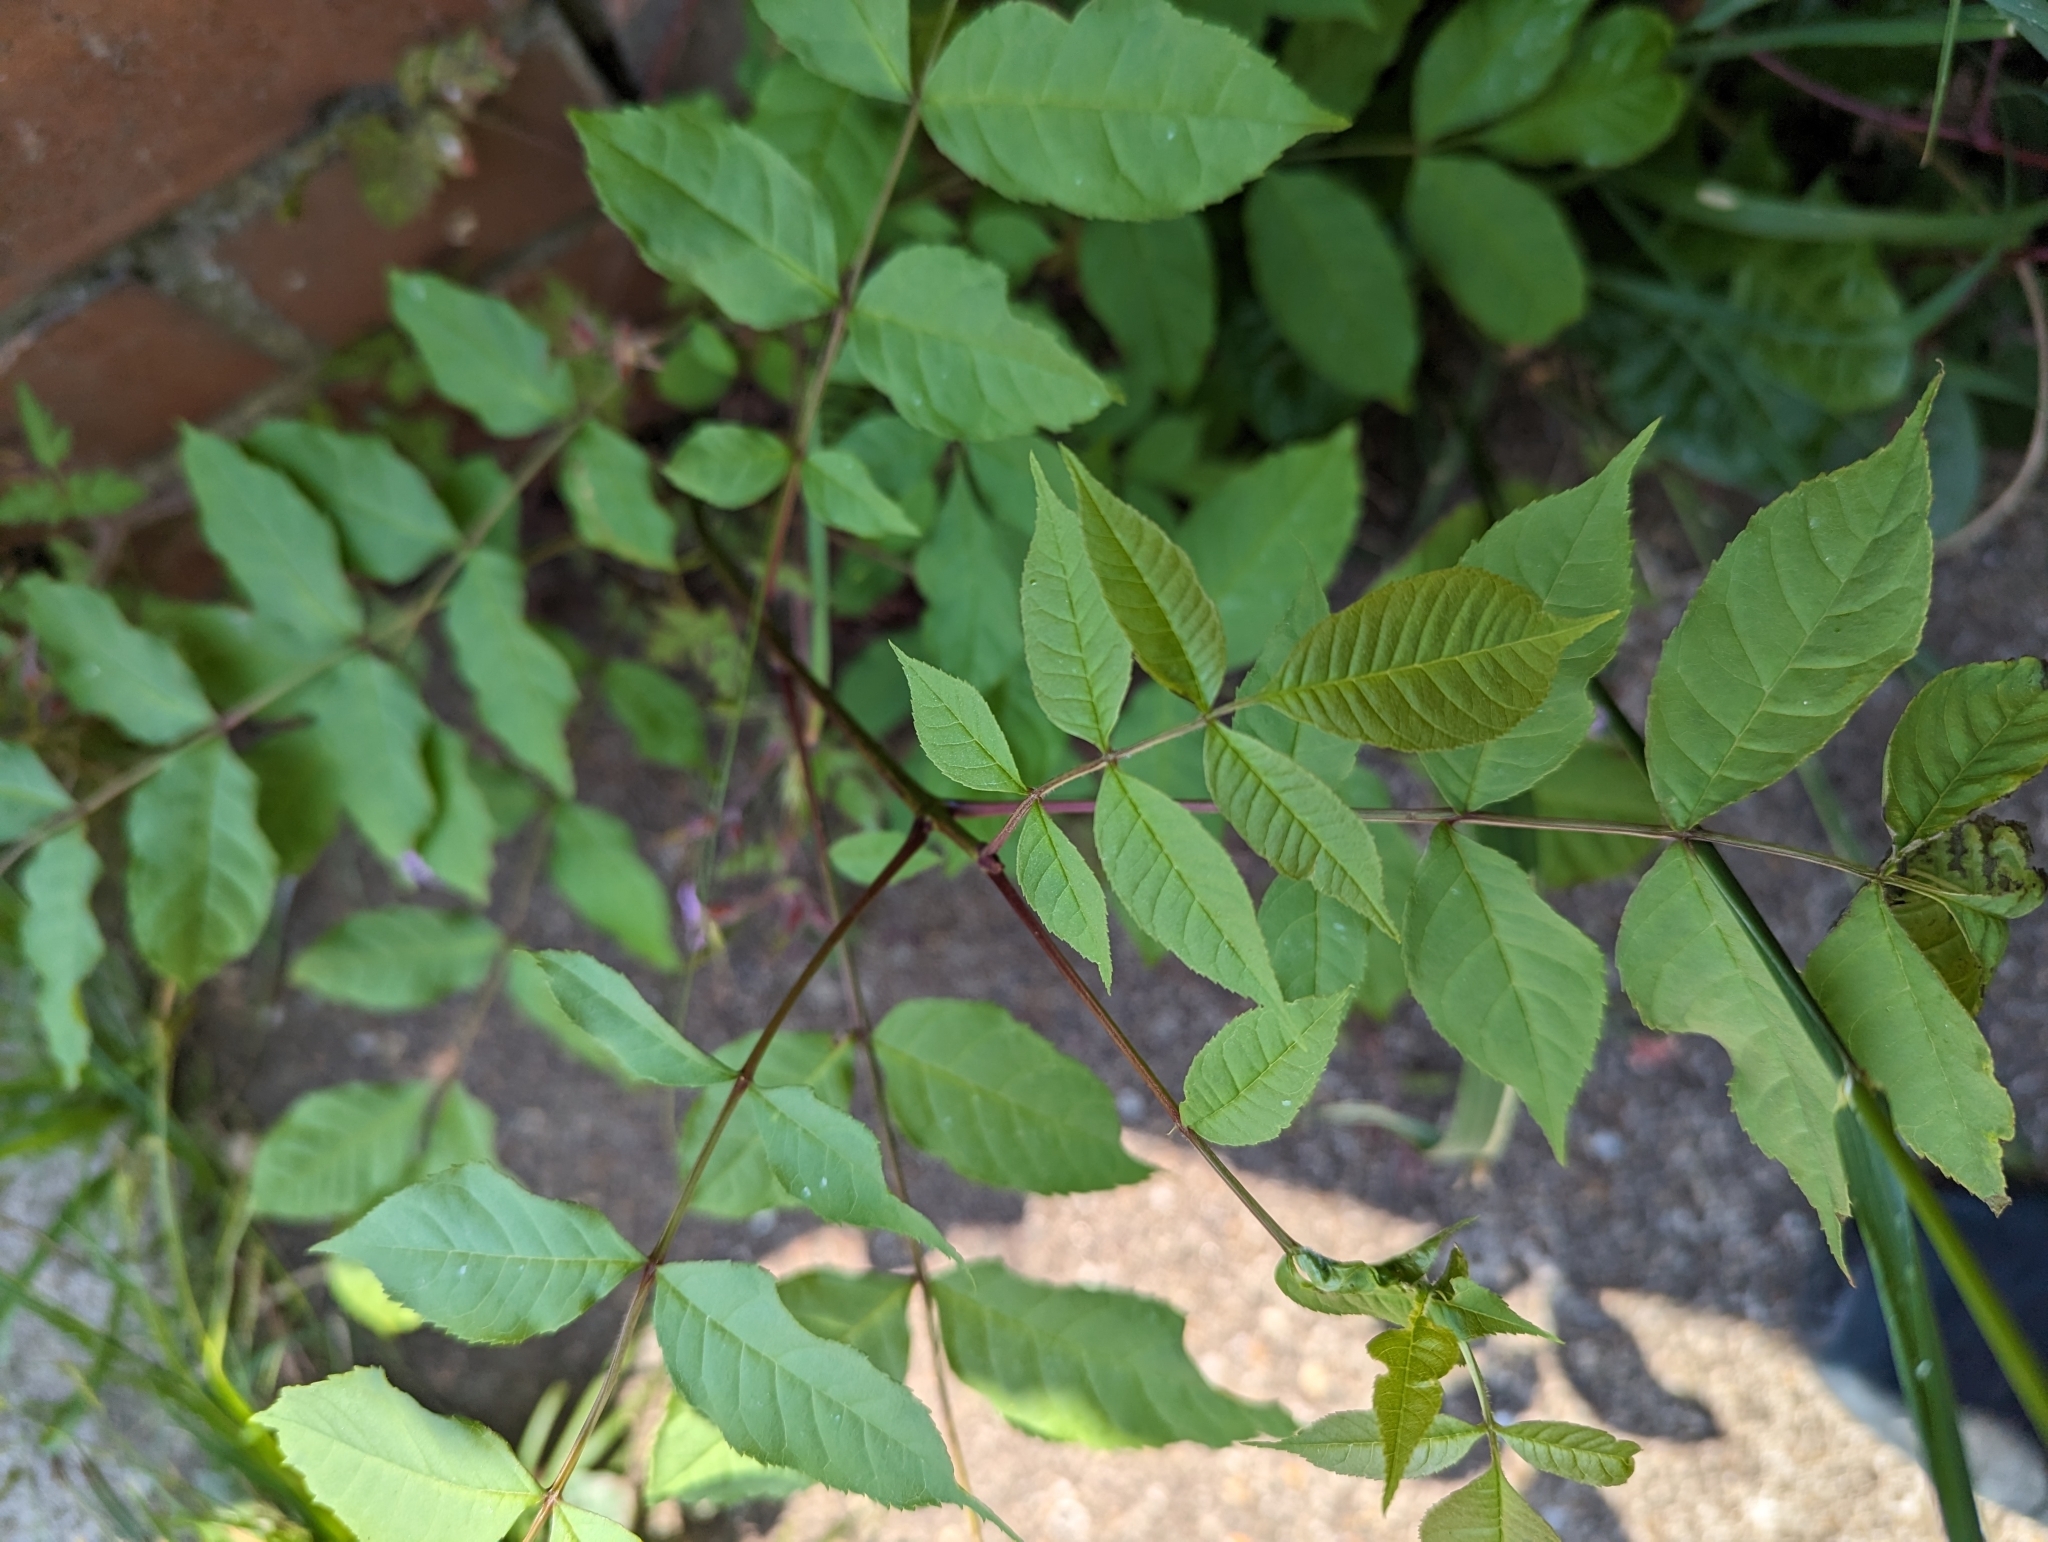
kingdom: Plantae
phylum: Tracheophyta
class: Magnoliopsida
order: Lamiales
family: Oleaceae
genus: Fraxinus
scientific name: Fraxinus excelsior
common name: European ash
